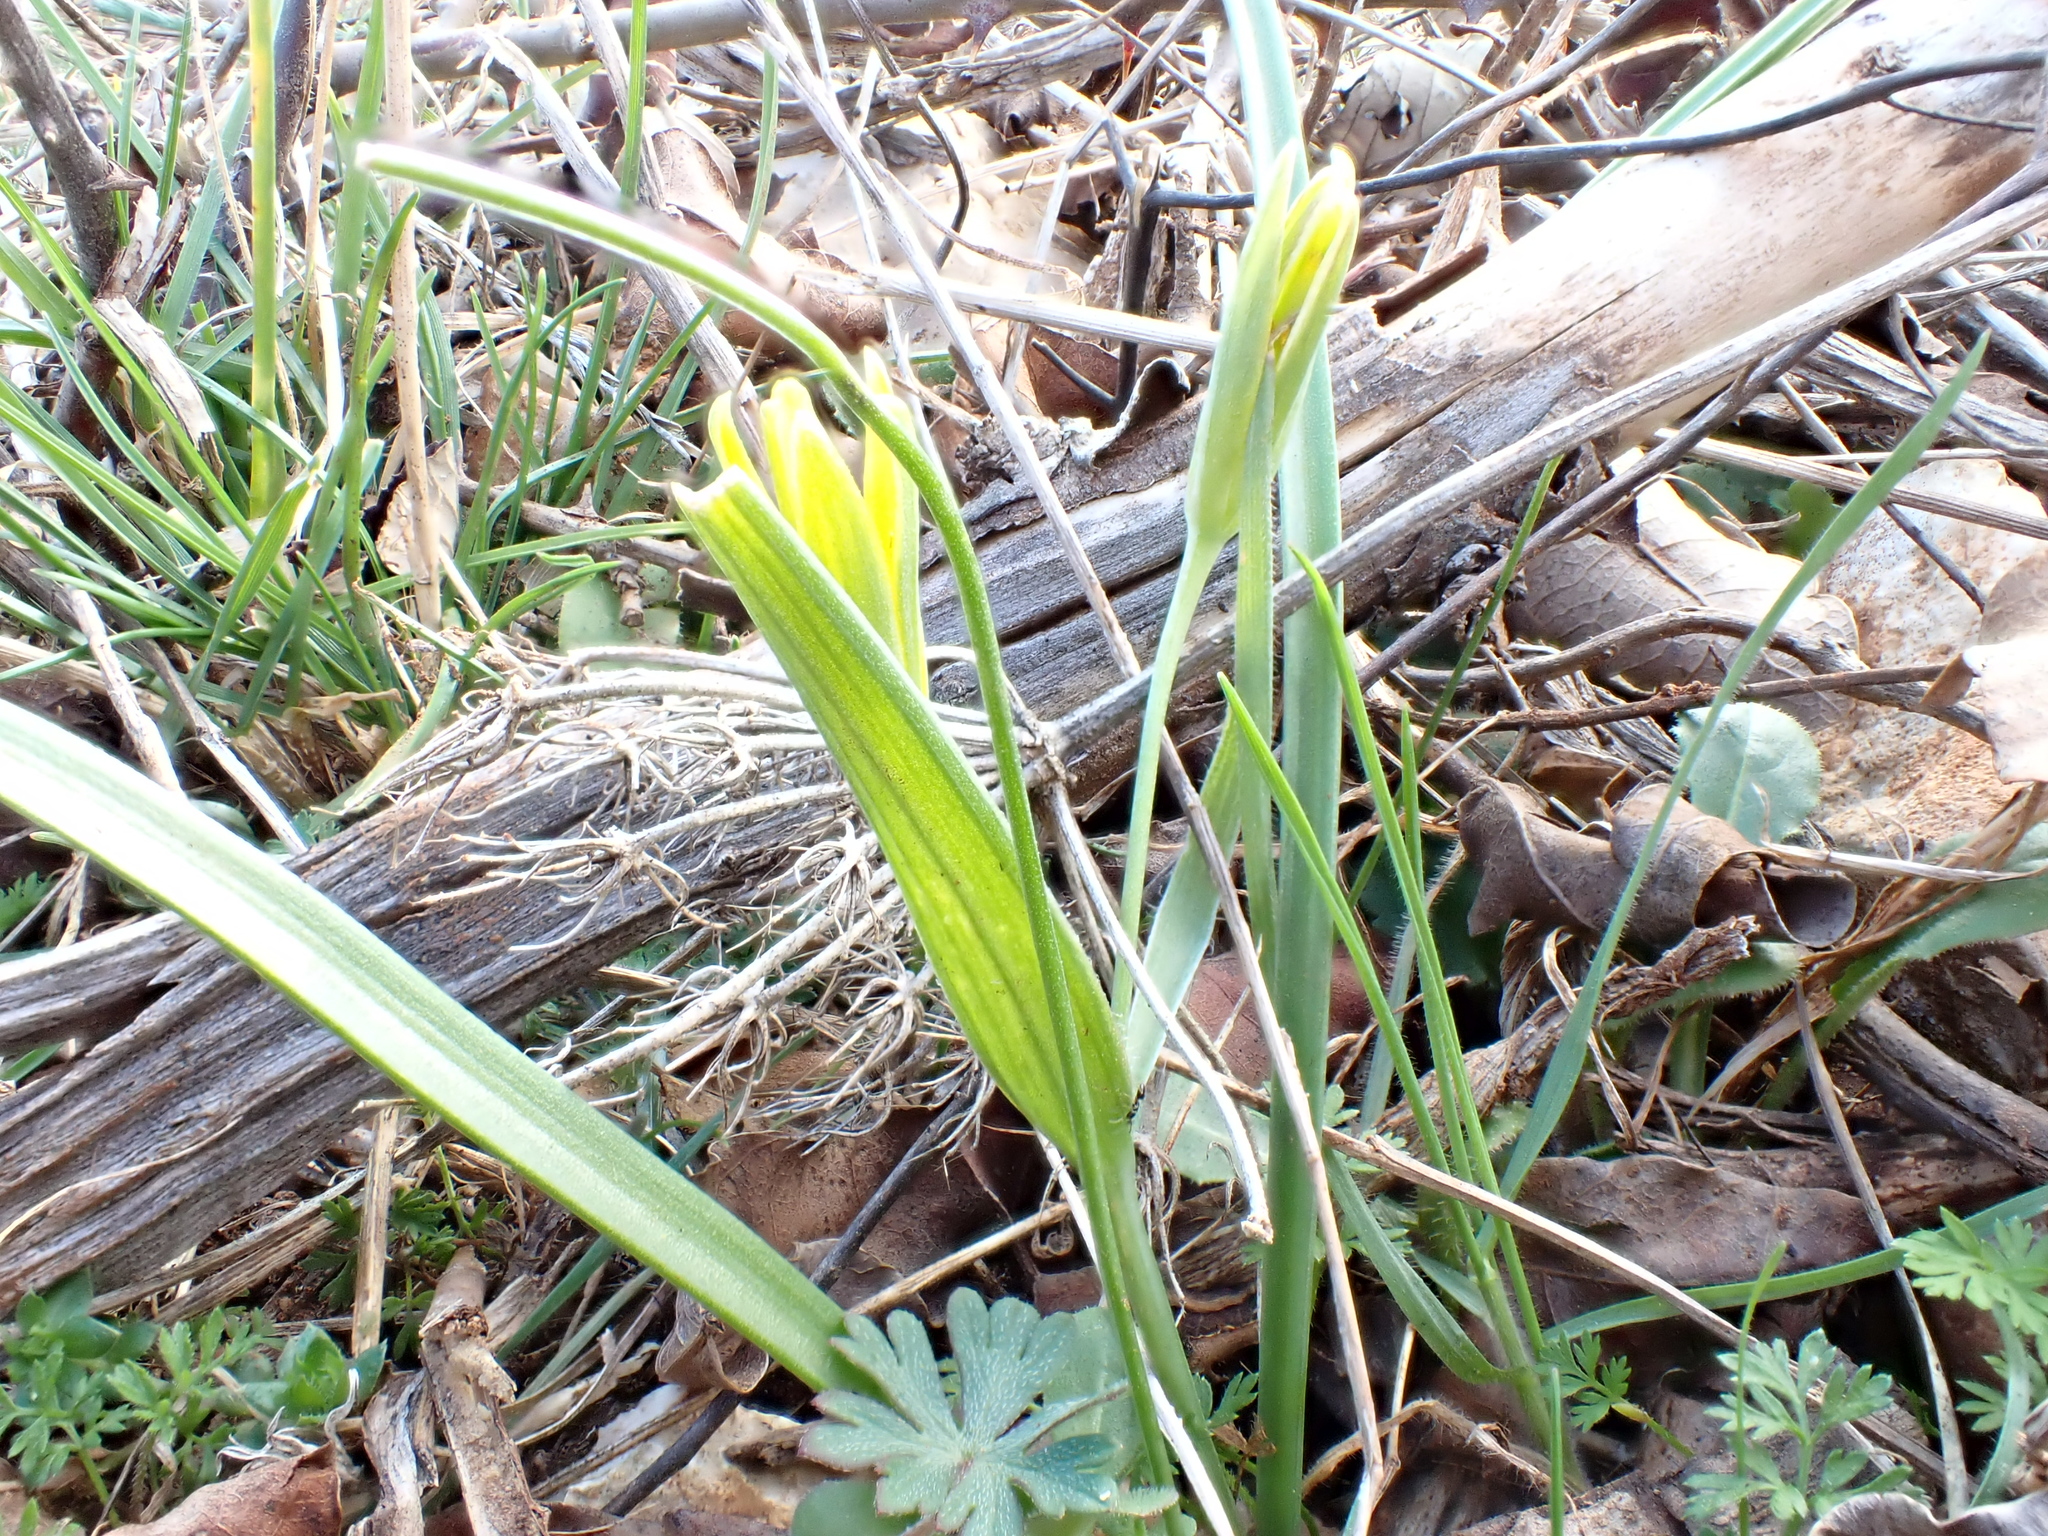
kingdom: Plantae
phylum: Tracheophyta
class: Liliopsida
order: Liliales
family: Liliaceae
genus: Gagea
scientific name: Gagea pratensis
